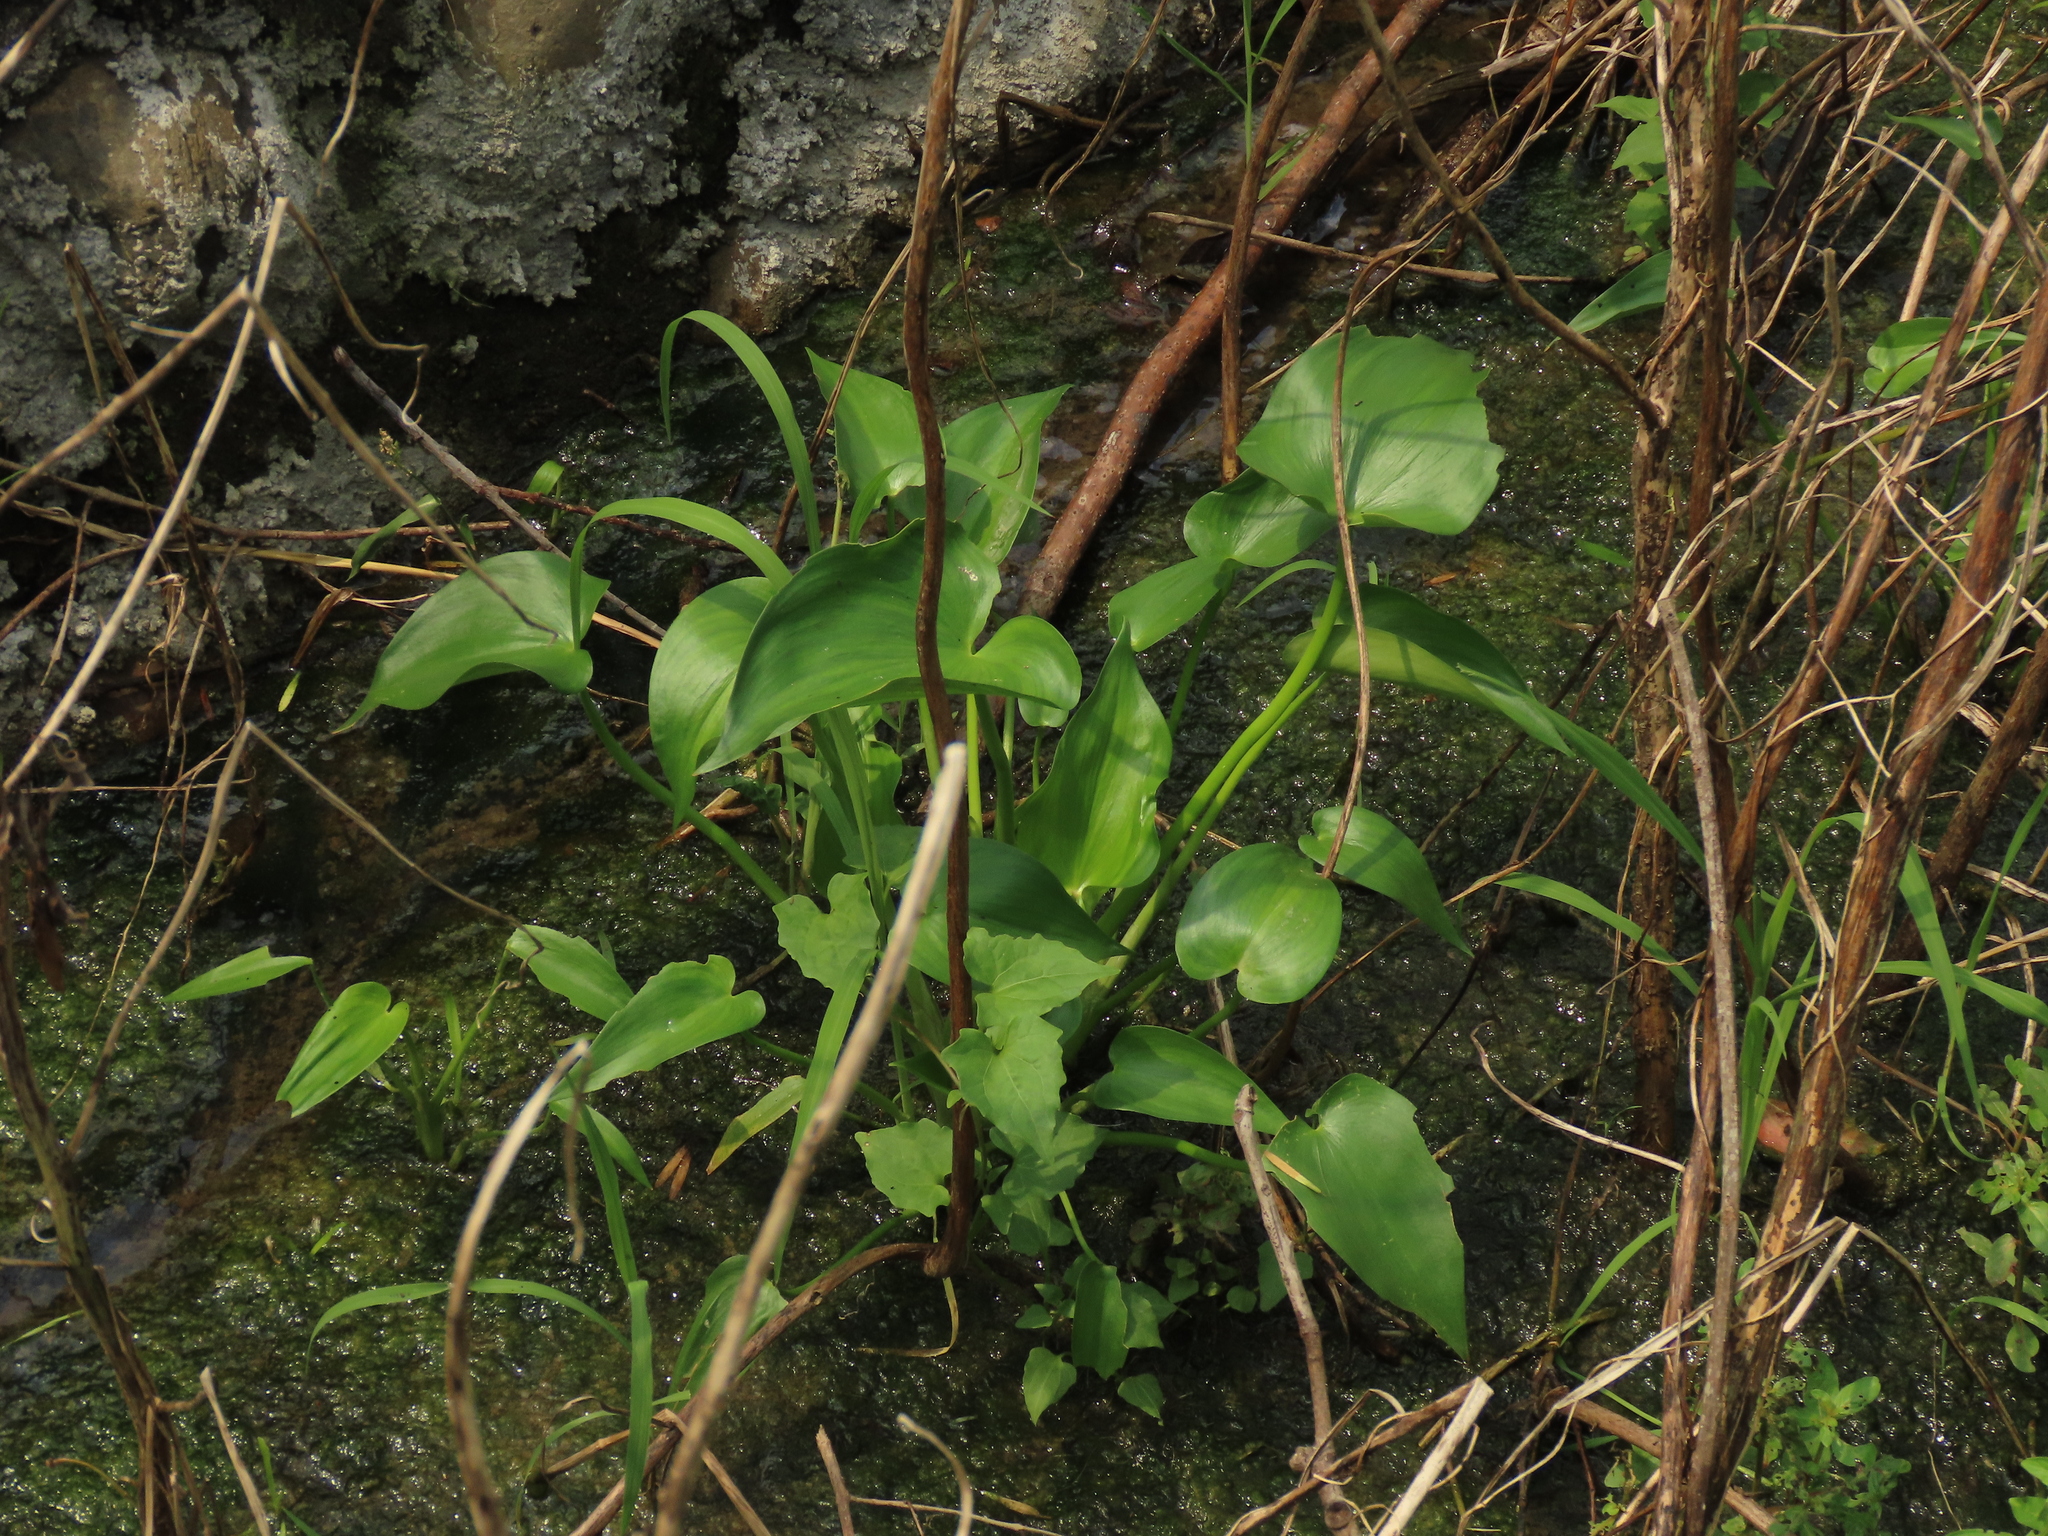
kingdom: Plantae
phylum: Tracheophyta
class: Liliopsida
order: Commelinales
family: Pontederiaceae
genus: Pontederia
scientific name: Pontederia vaginalis
